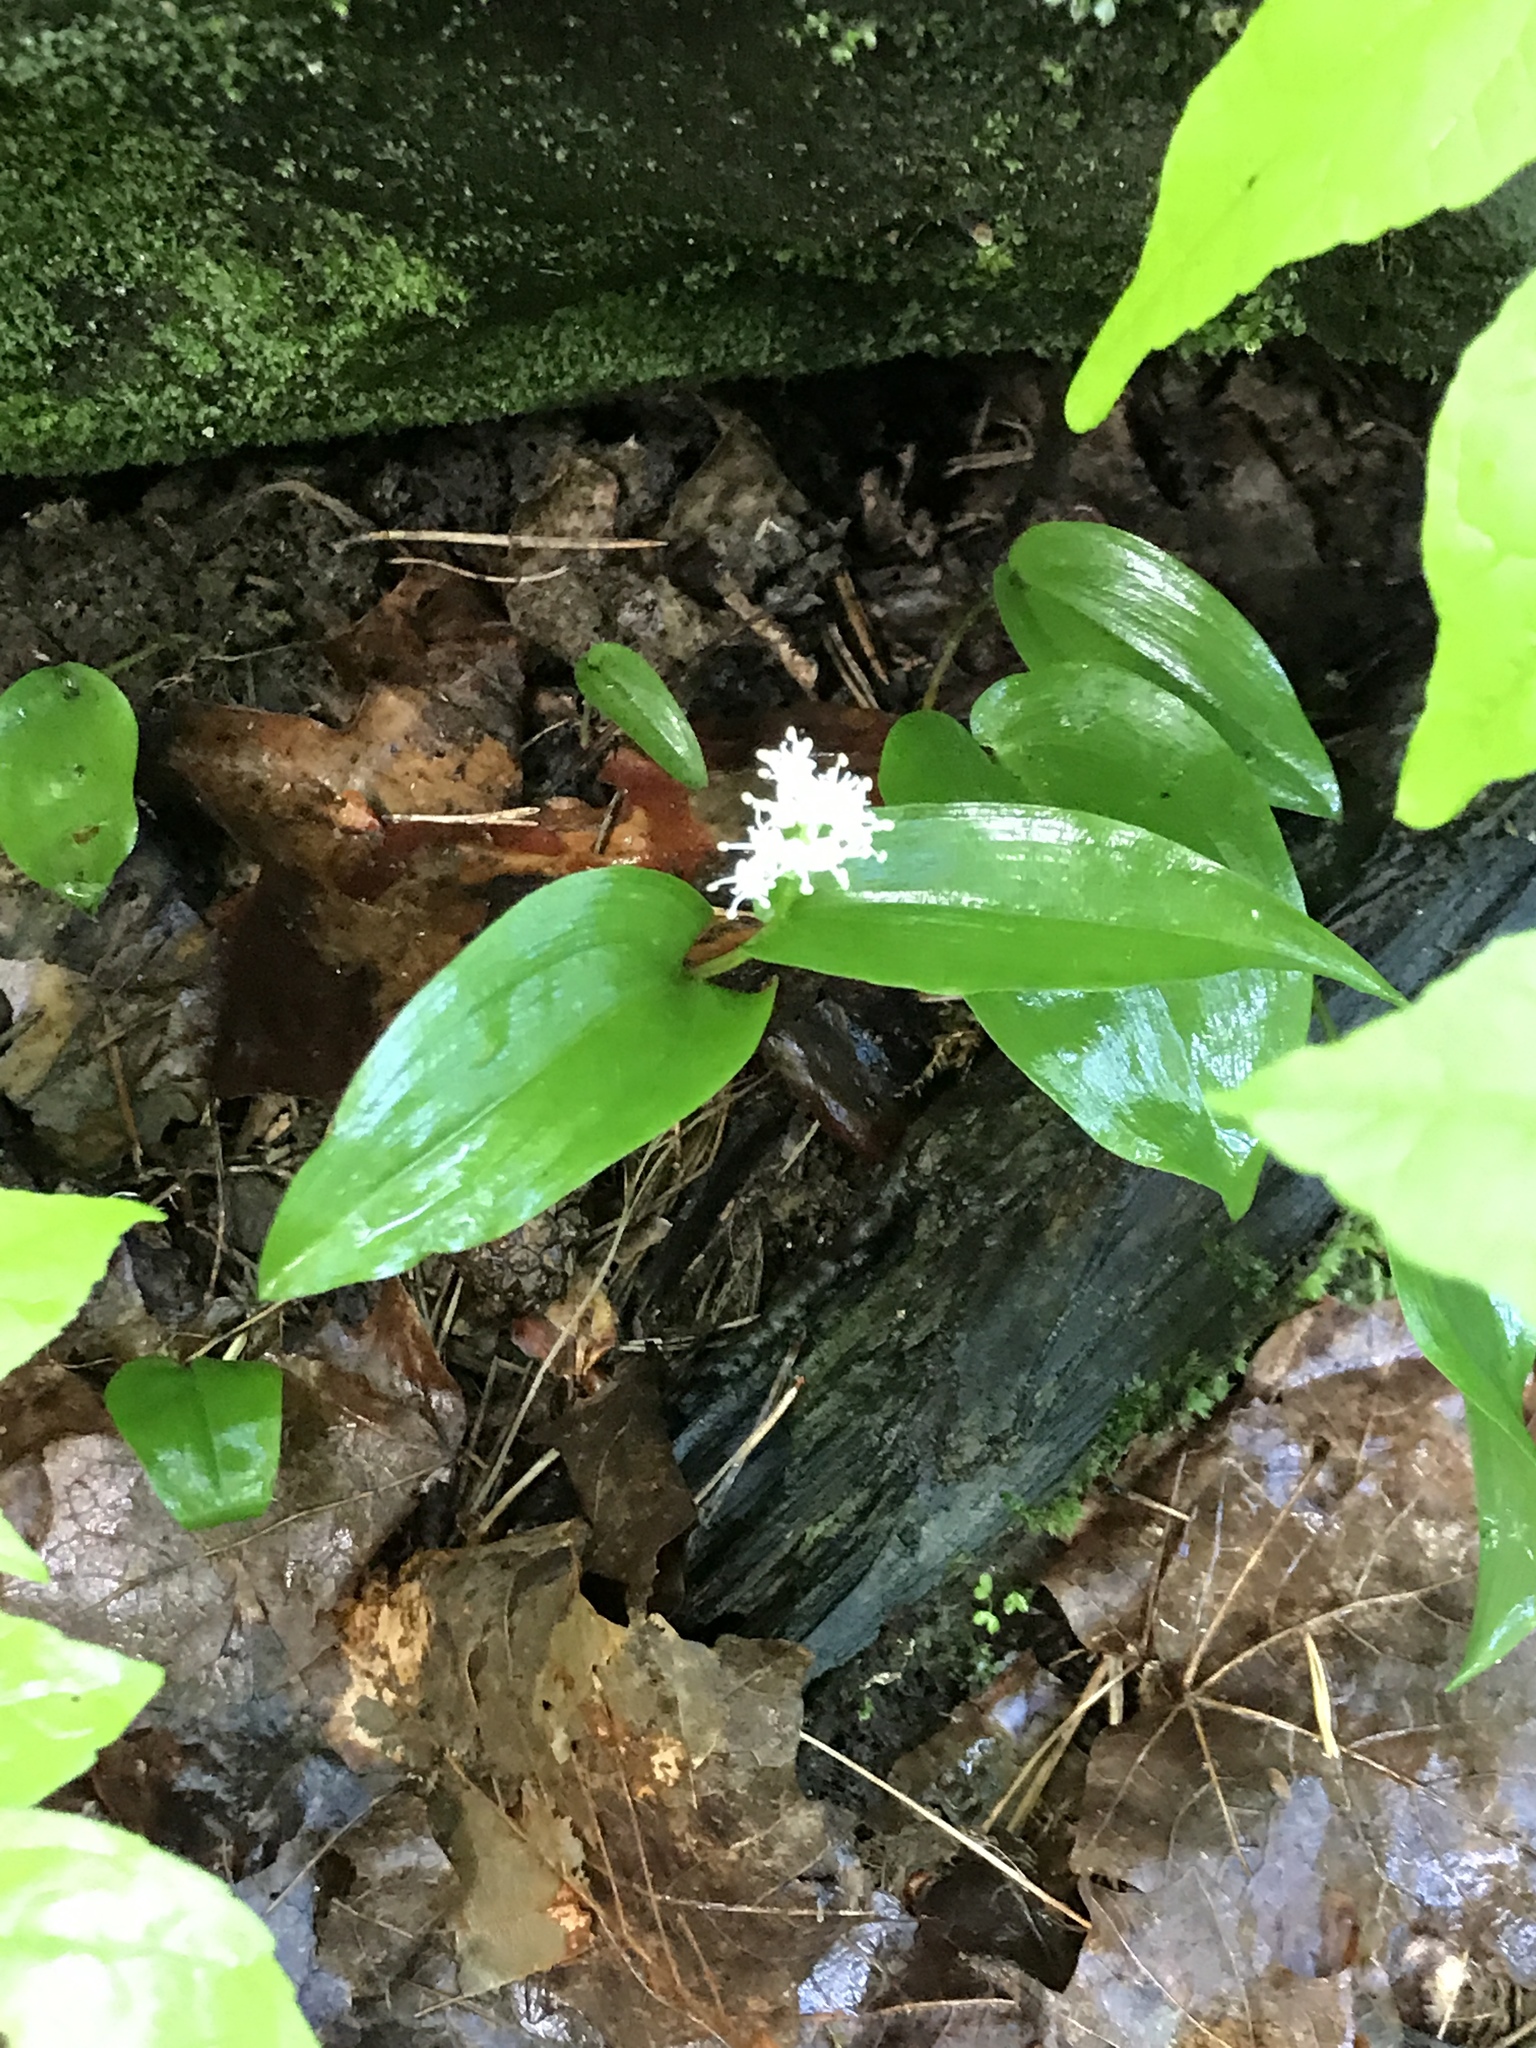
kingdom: Plantae
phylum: Tracheophyta
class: Liliopsida
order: Asparagales
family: Asparagaceae
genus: Maianthemum
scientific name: Maianthemum canadense
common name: False lily-of-the-valley
